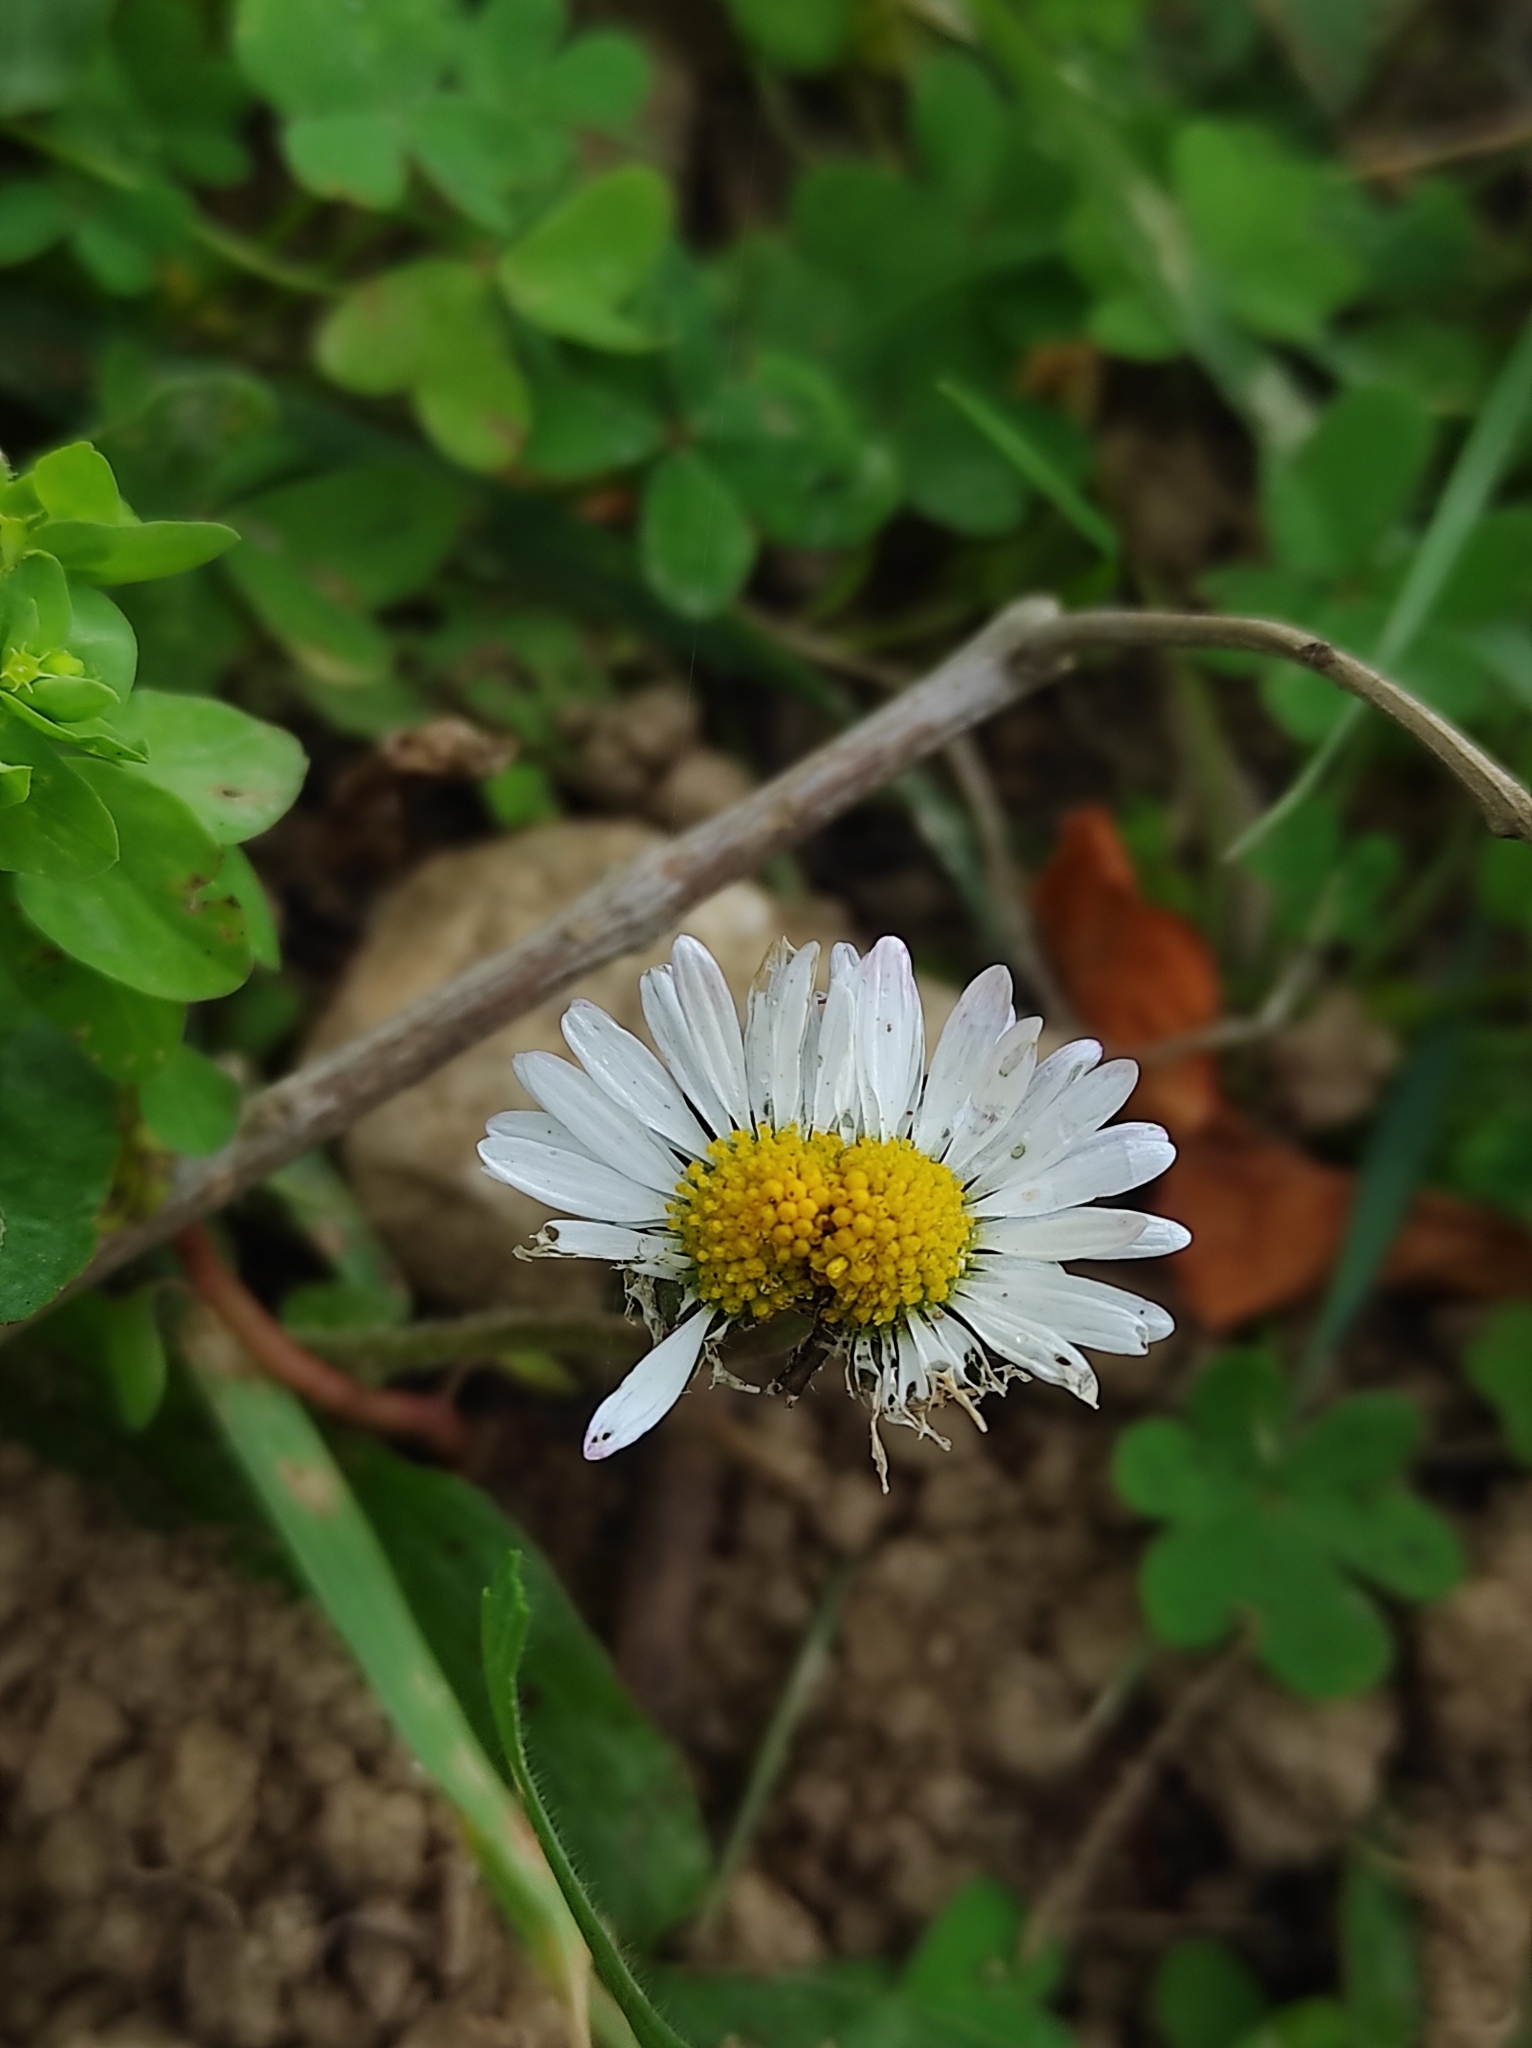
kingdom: Plantae
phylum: Tracheophyta
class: Magnoliopsida
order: Asterales
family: Asteraceae
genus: Bellis
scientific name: Bellis perennis
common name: Lawndaisy
